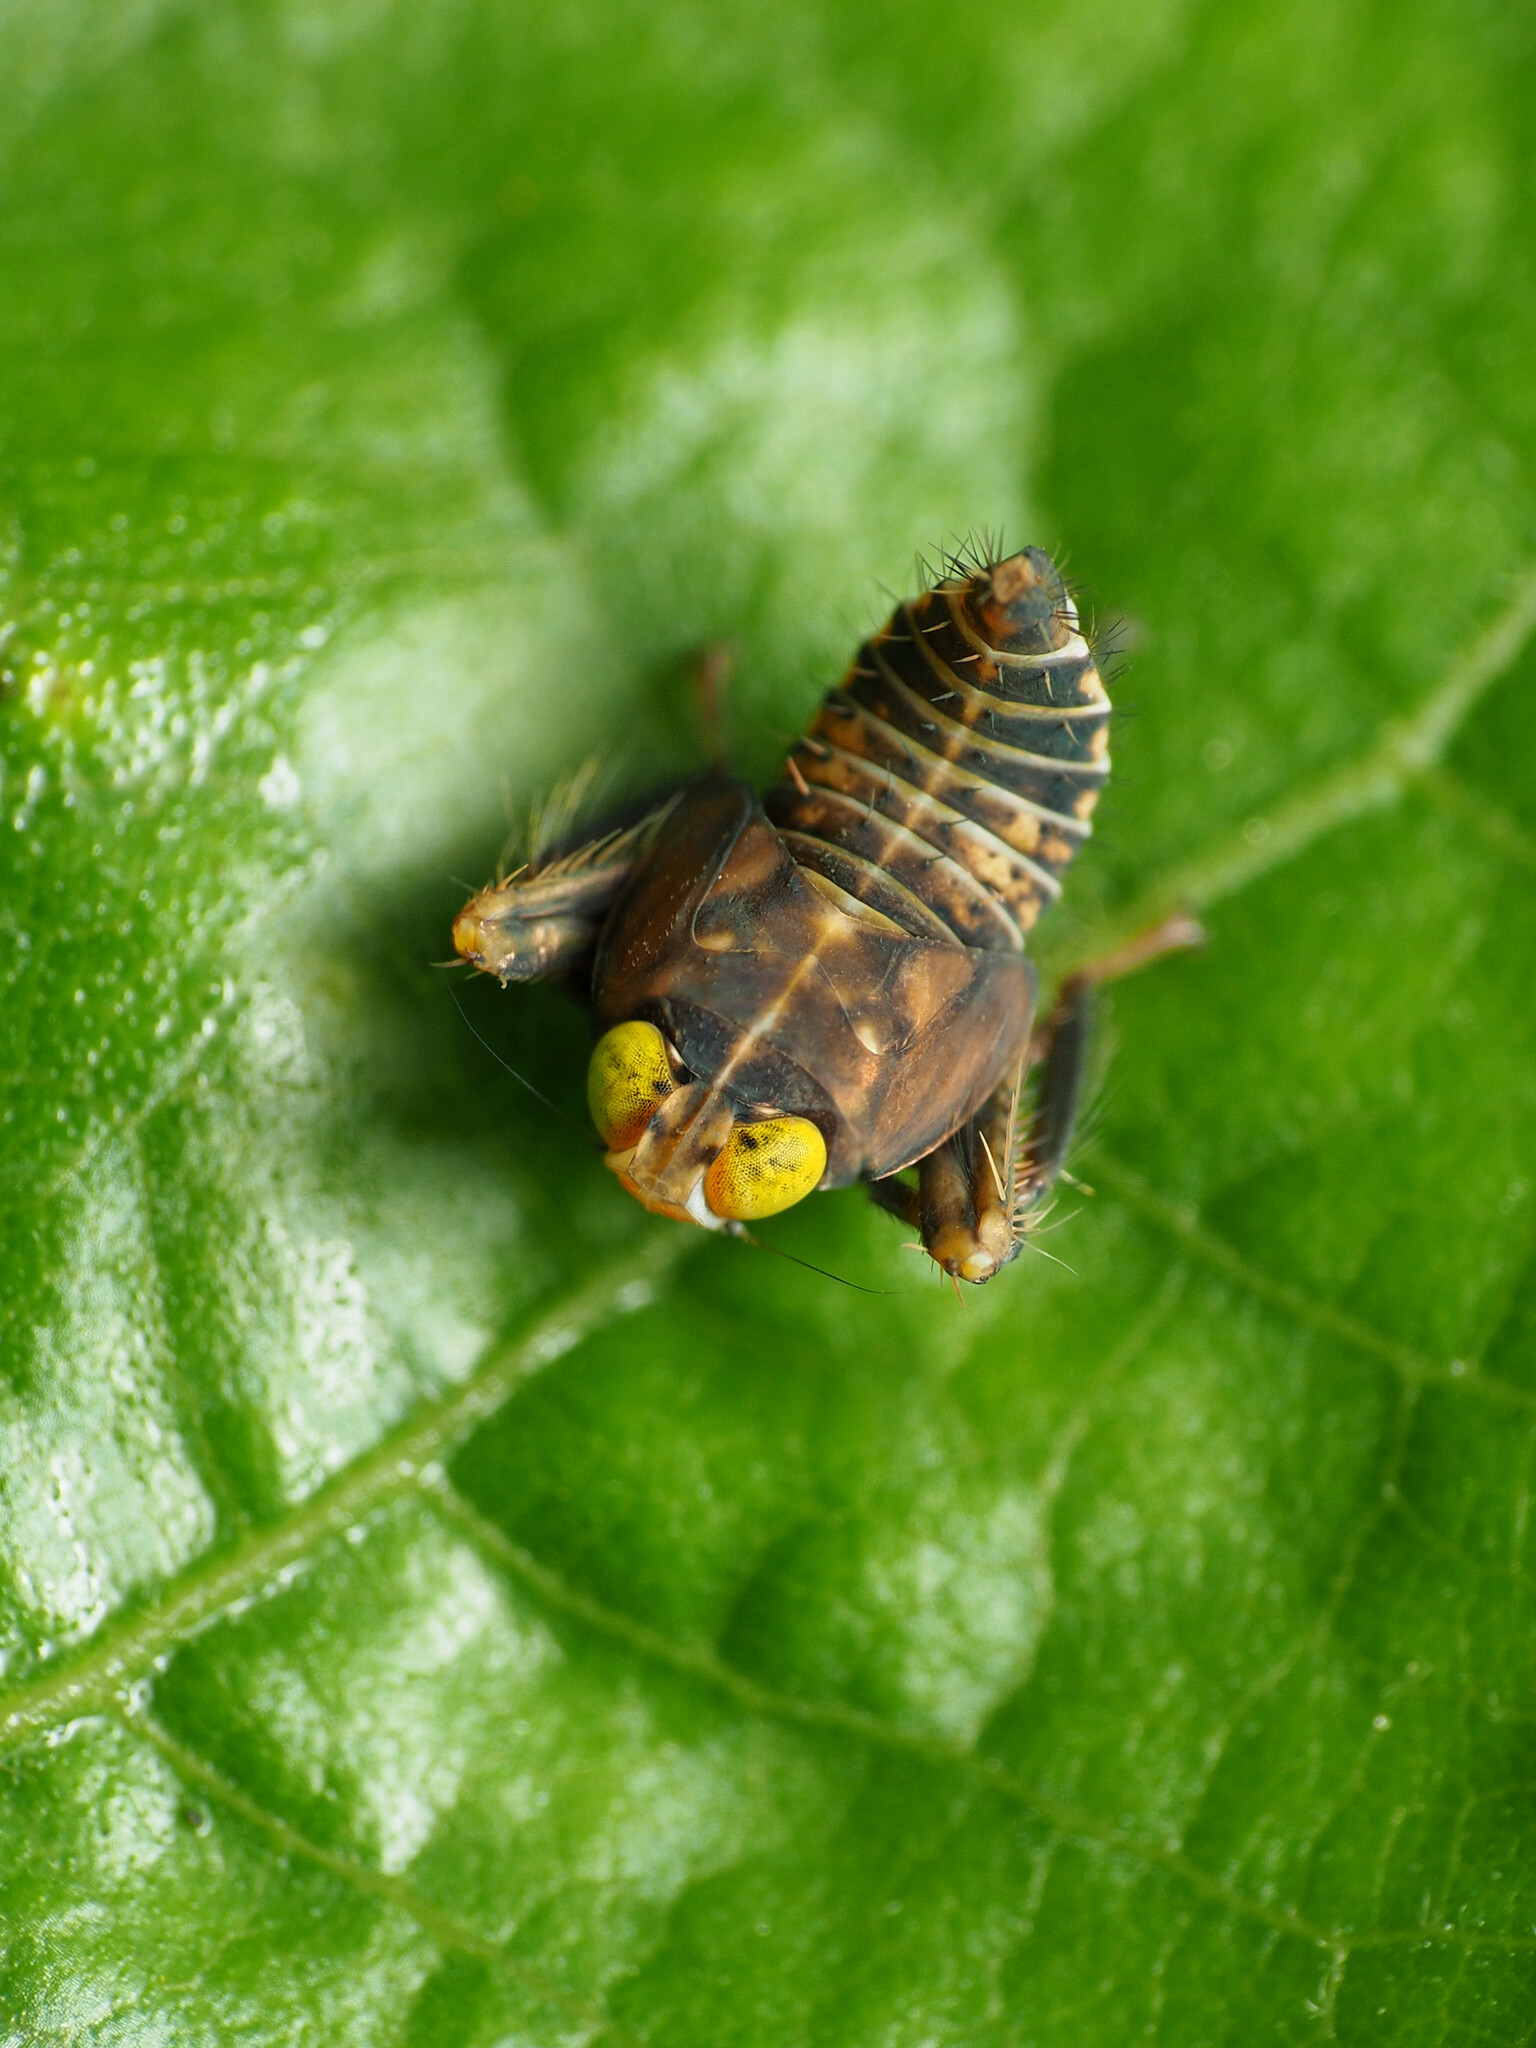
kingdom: Animalia
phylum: Arthropoda
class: Insecta
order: Hemiptera
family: Cicadellidae
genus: Jikradia
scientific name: Jikradia olitoria
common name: Coppery leafhopper
